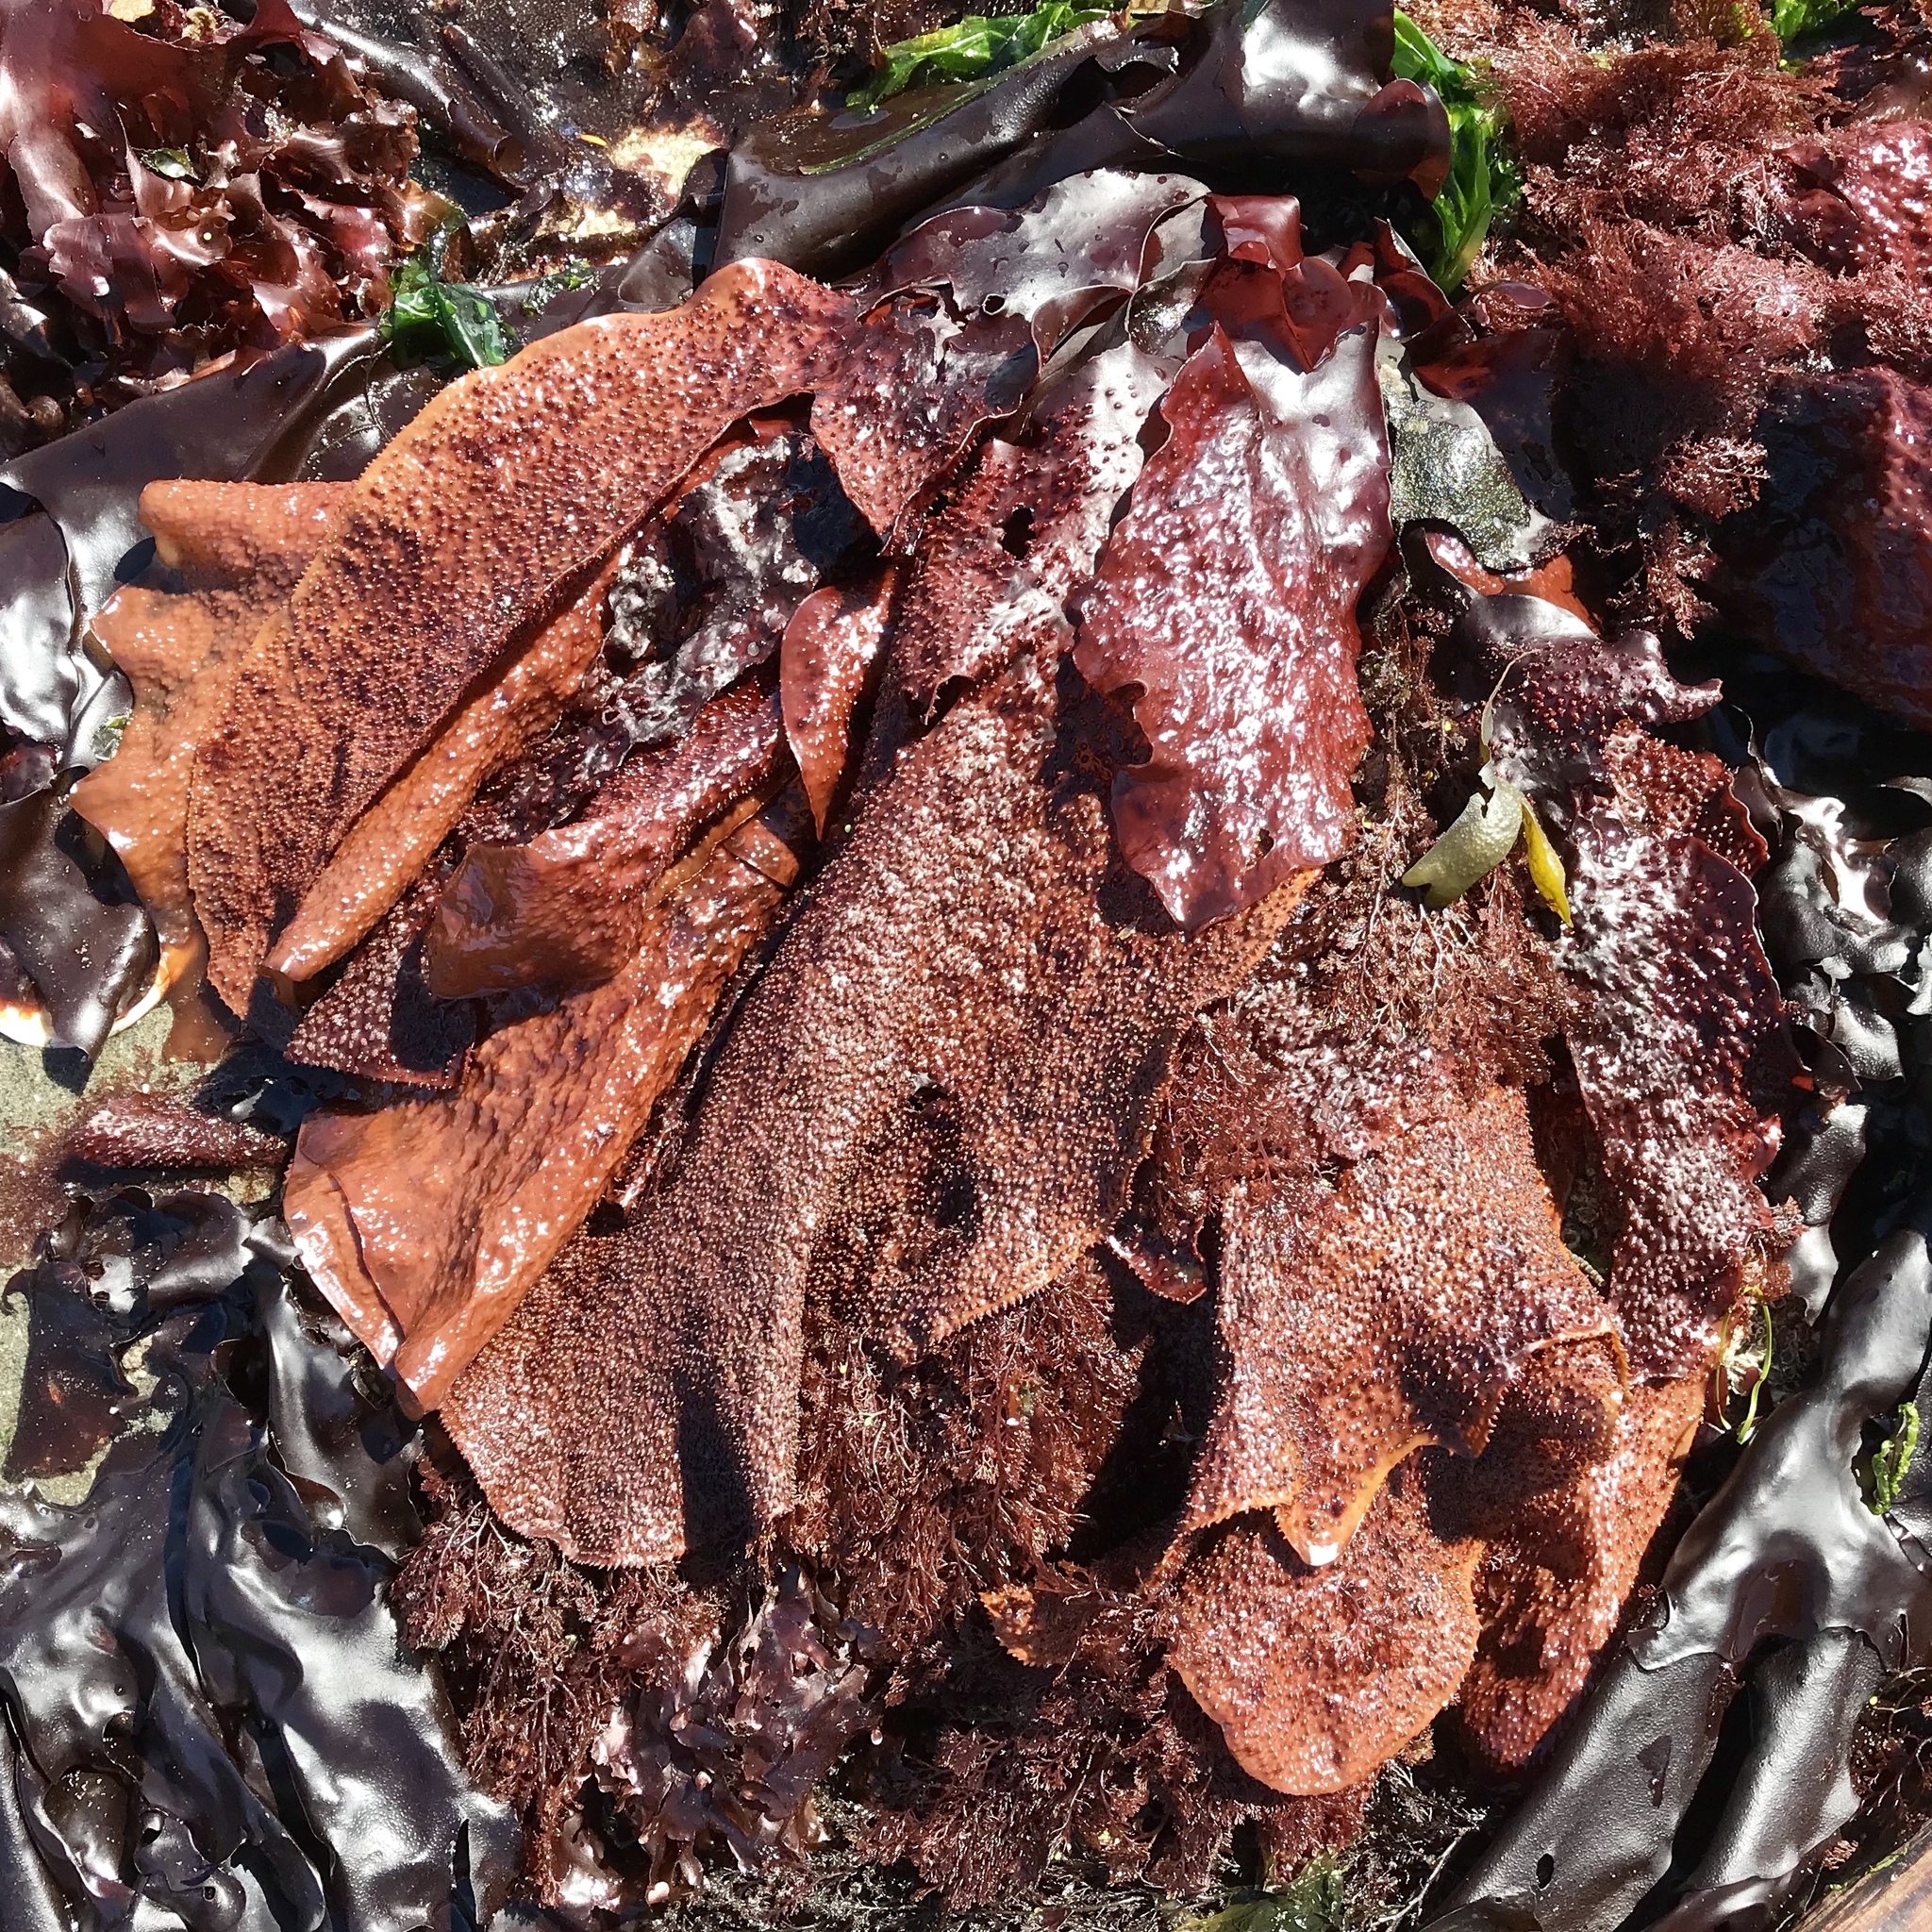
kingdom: Plantae
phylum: Rhodophyta
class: Florideophyceae
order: Gigartinales
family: Gigartinaceae
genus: Chondracanthus
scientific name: Chondracanthus exasperatus
